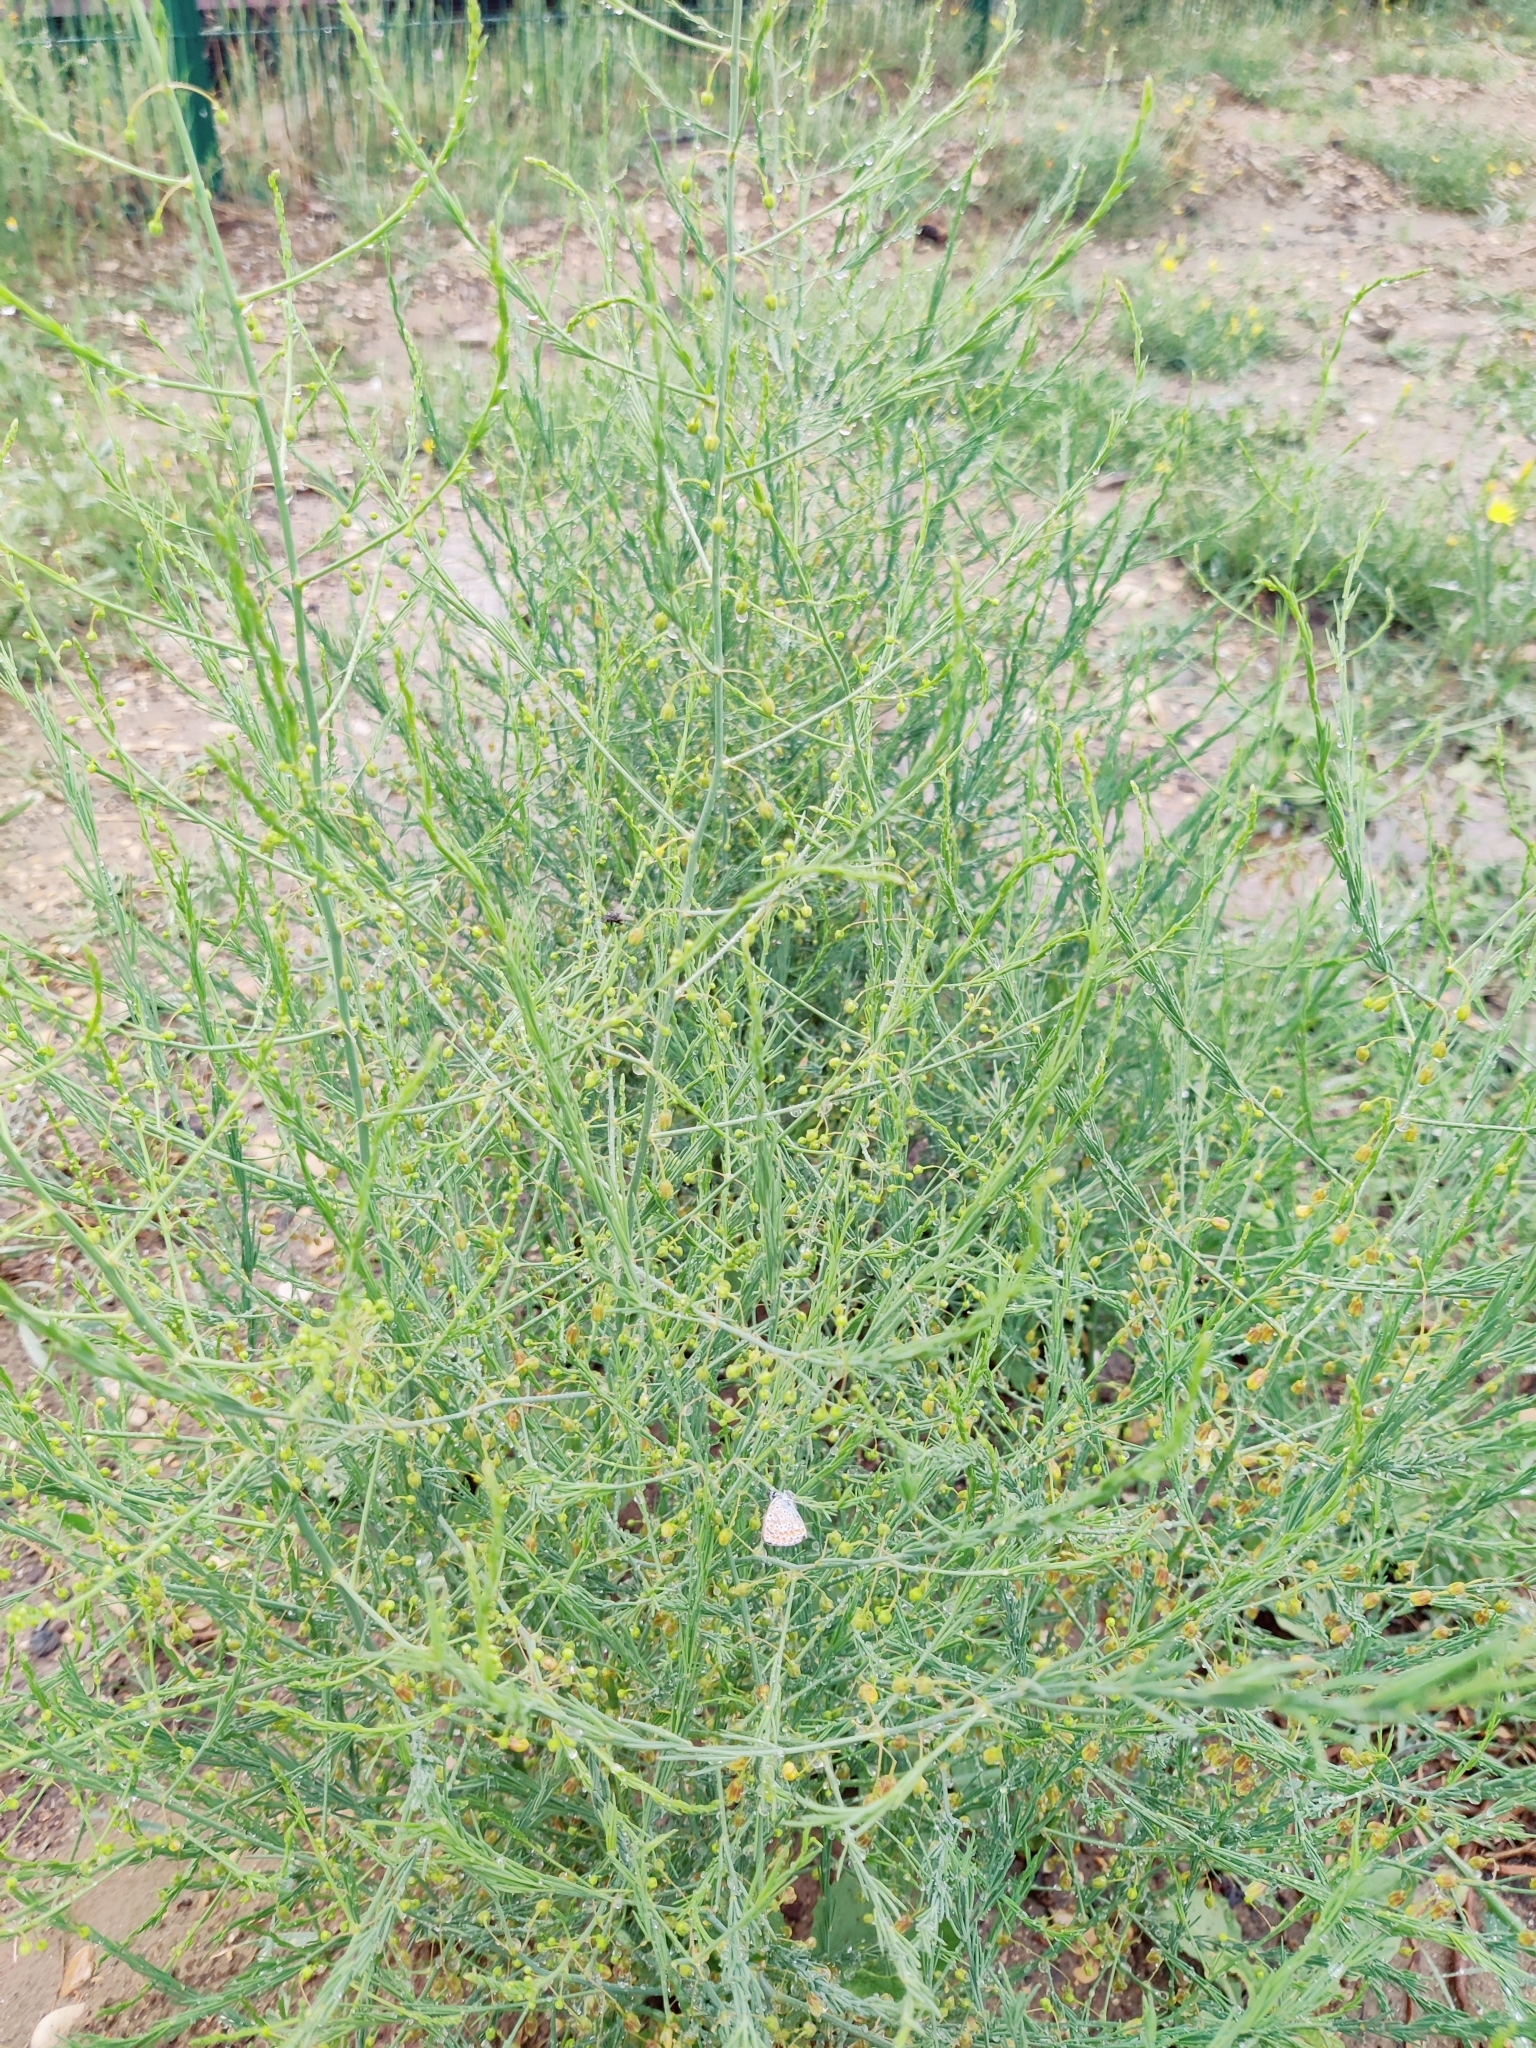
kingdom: Plantae
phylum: Tracheophyta
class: Liliopsida
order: Asparagales
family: Asparagaceae
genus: Asparagus
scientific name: Asparagus officinalis
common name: Garden asparagus
